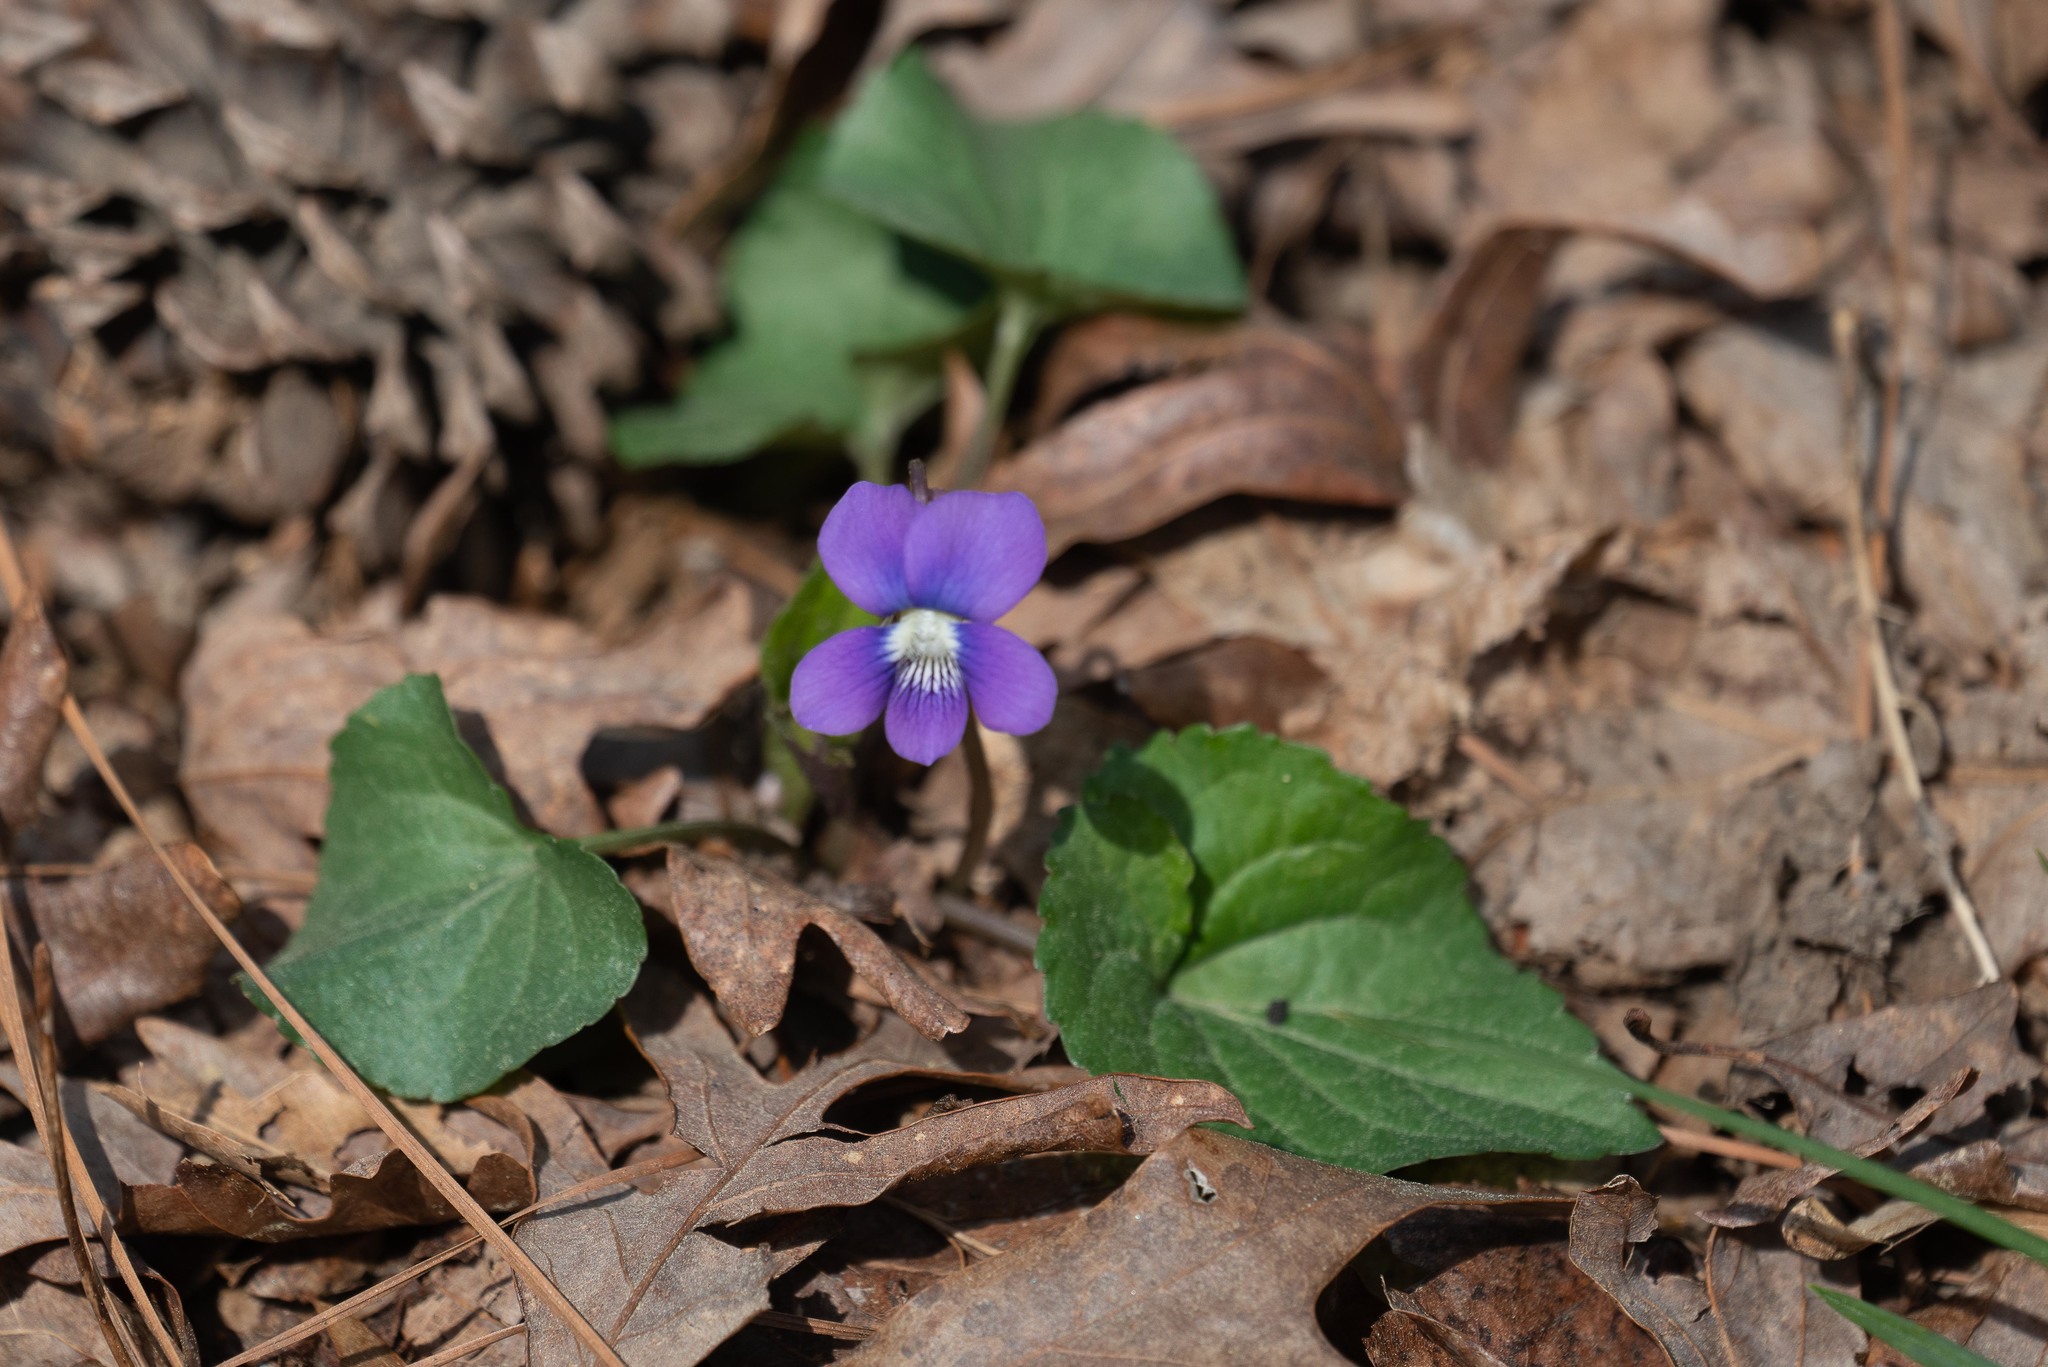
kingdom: Plantae
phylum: Tracheophyta
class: Magnoliopsida
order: Malpighiales
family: Violaceae
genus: Viola
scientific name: Viola sororia
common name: Dooryard violet
